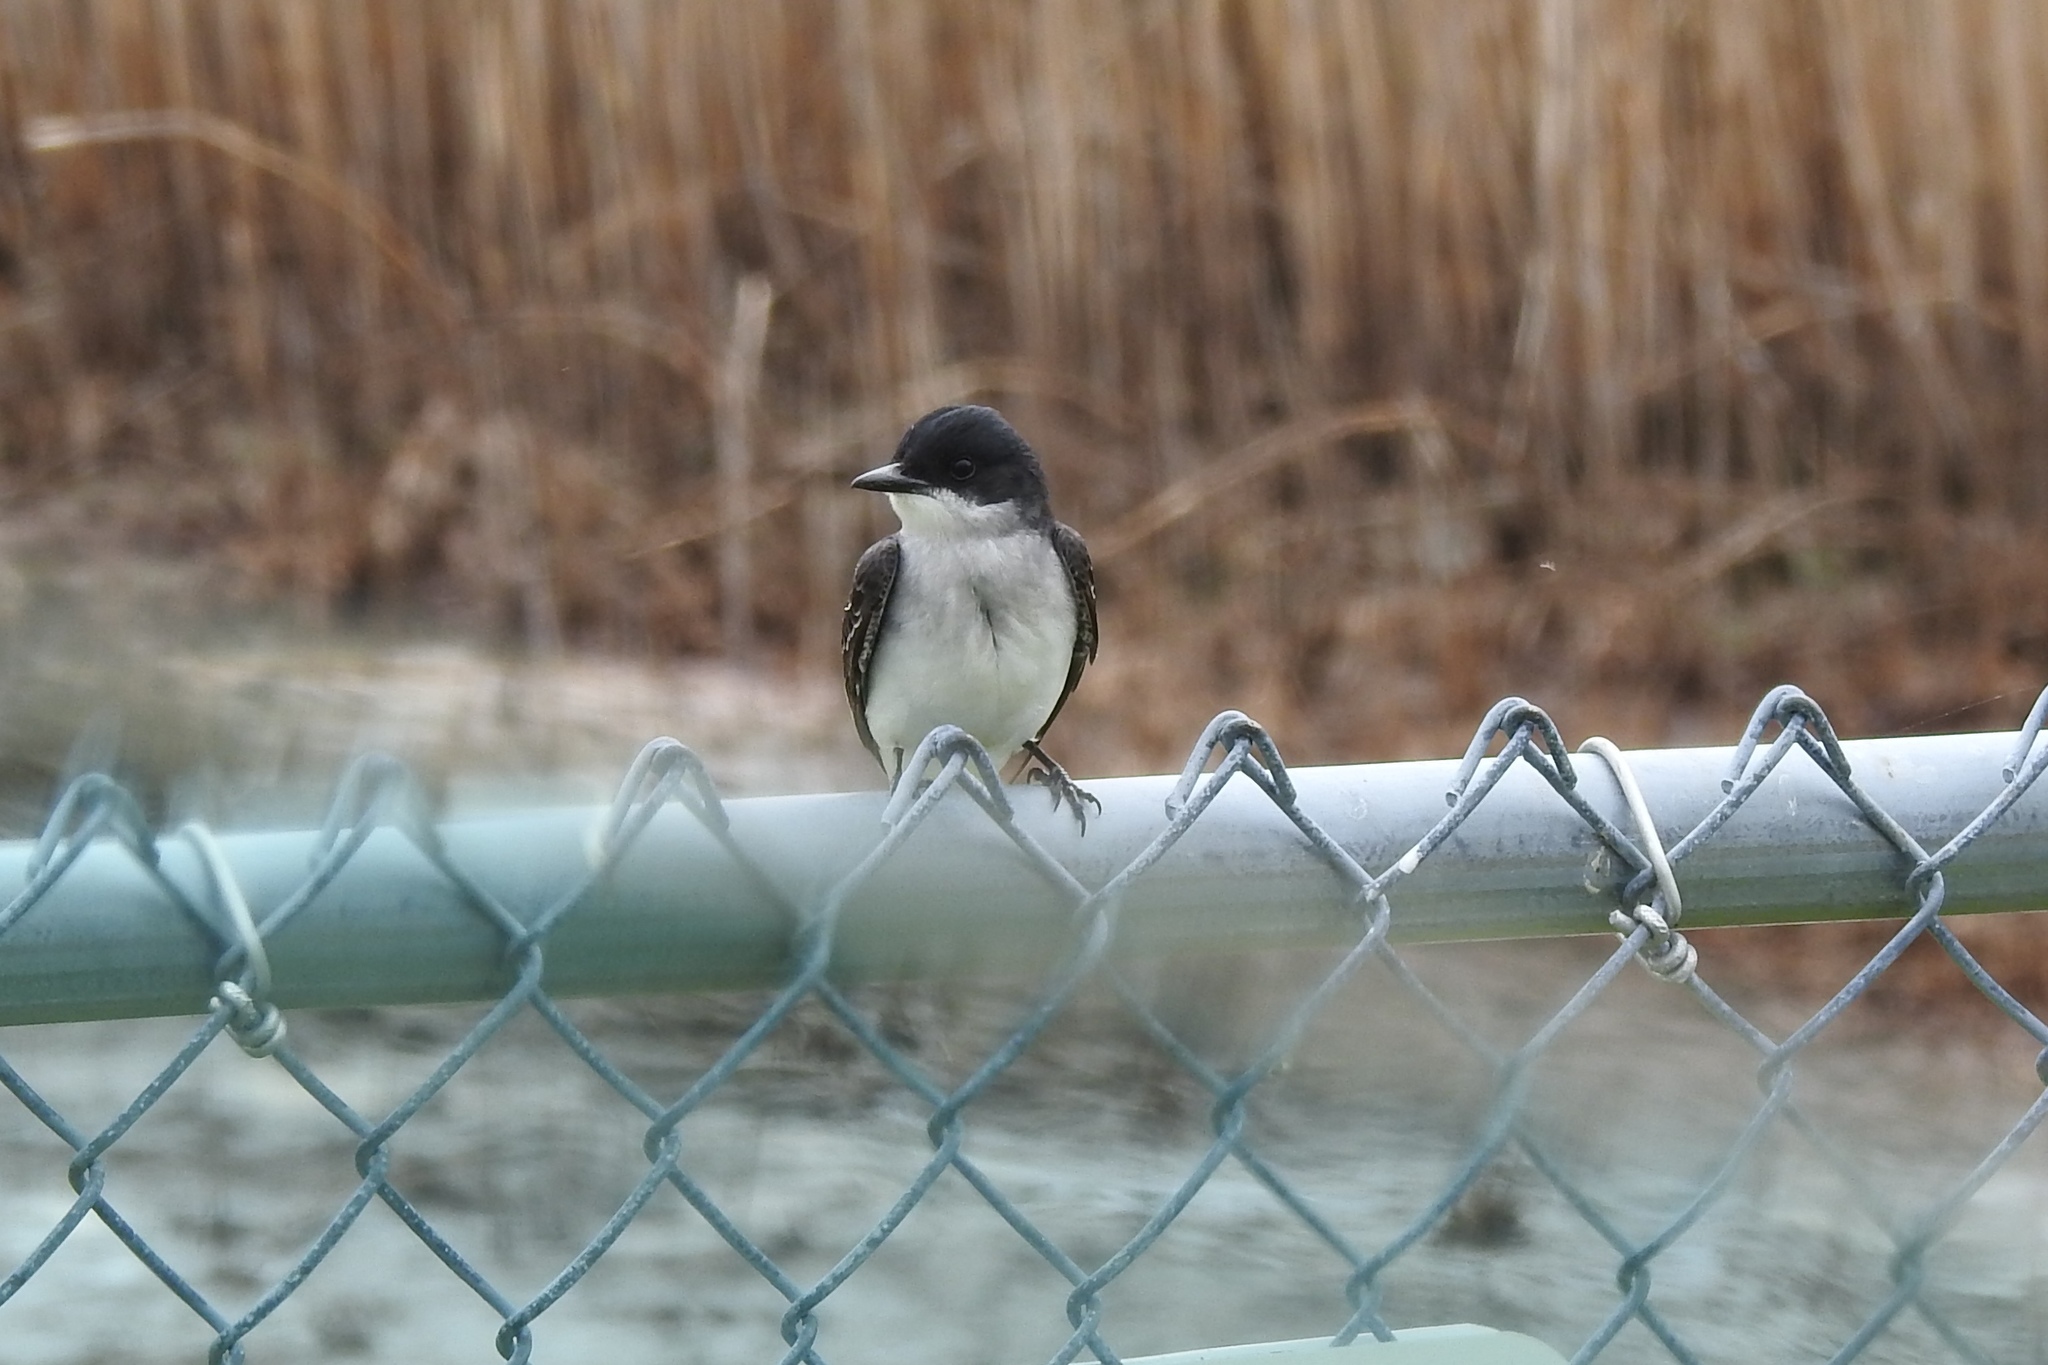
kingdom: Animalia
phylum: Chordata
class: Aves
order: Passeriformes
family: Tyrannidae
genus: Tyrannus
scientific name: Tyrannus tyrannus
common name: Eastern kingbird
